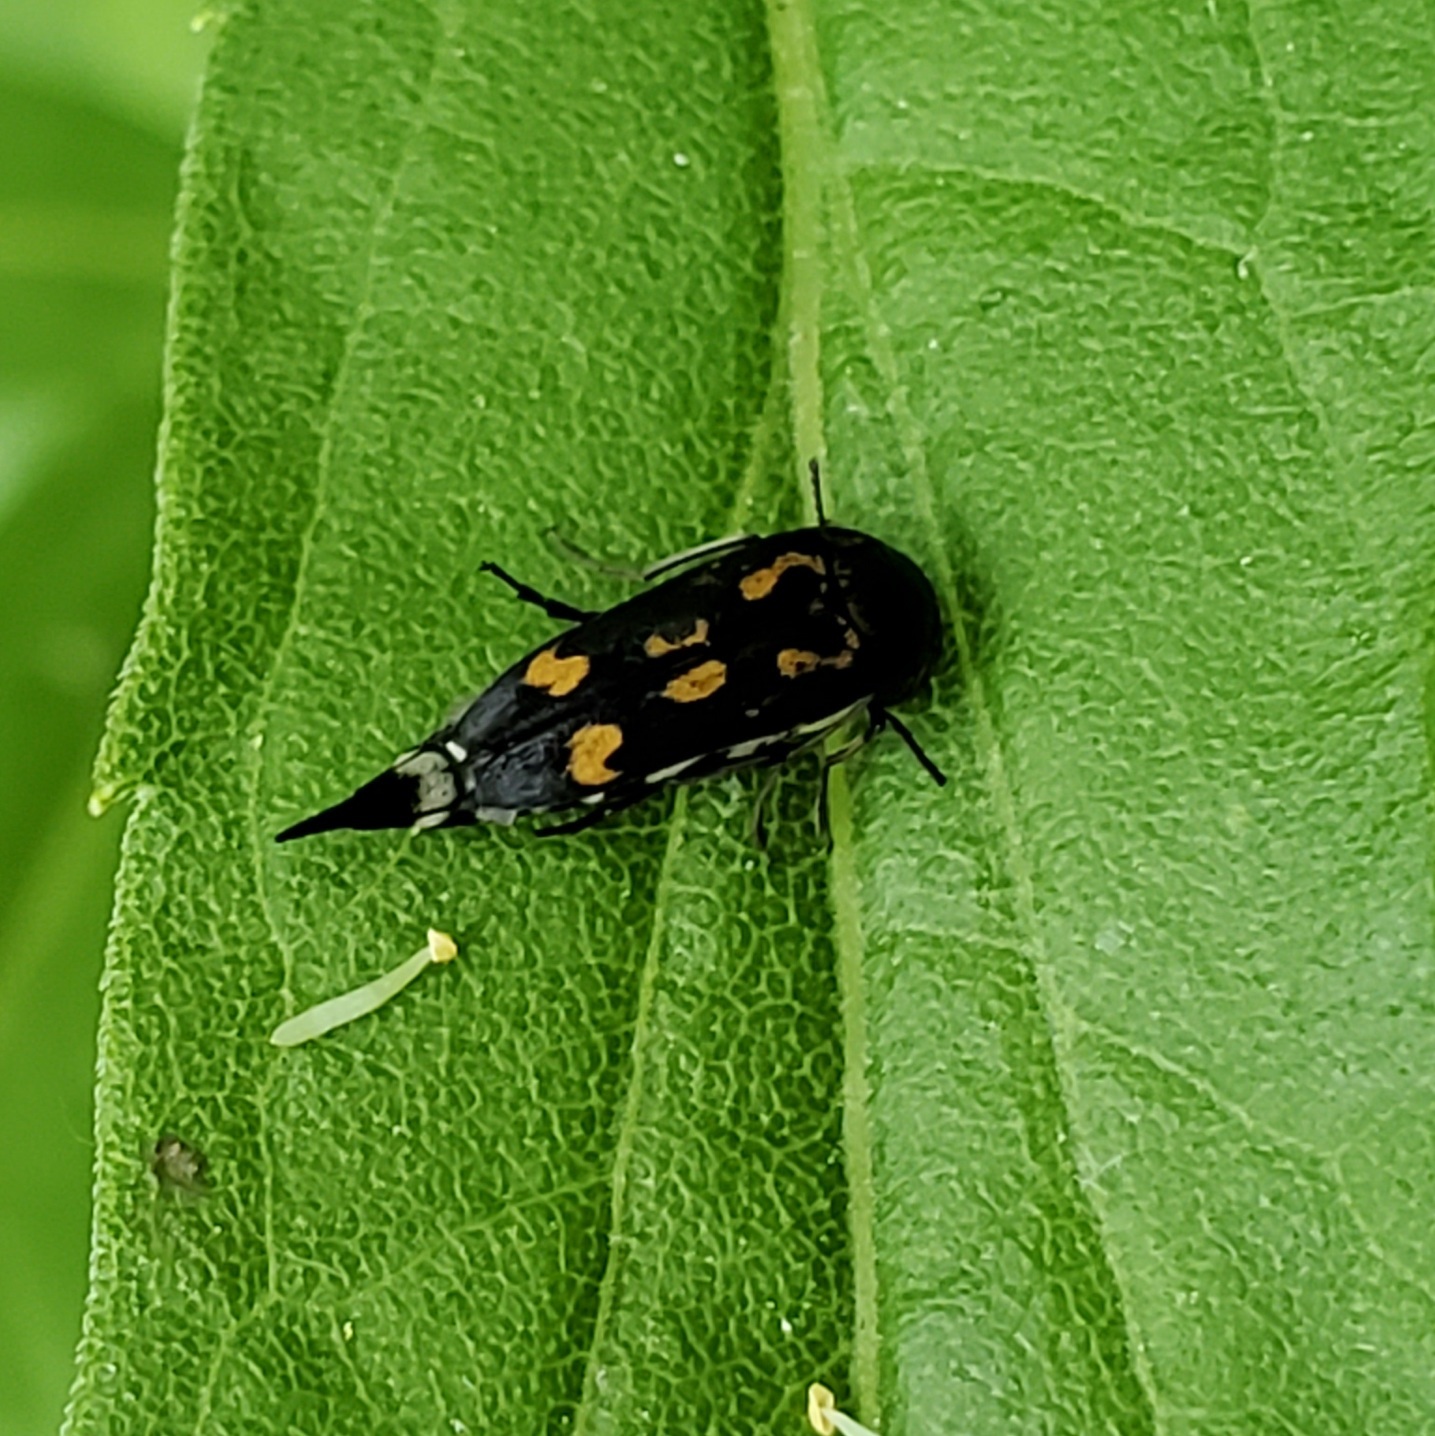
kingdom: Animalia
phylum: Arthropoda
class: Insecta
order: Coleoptera
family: Mordellidae
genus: Hoshihananomia
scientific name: Hoshihananomia octopunctata
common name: Eight-spotted tumbling flower beetle
